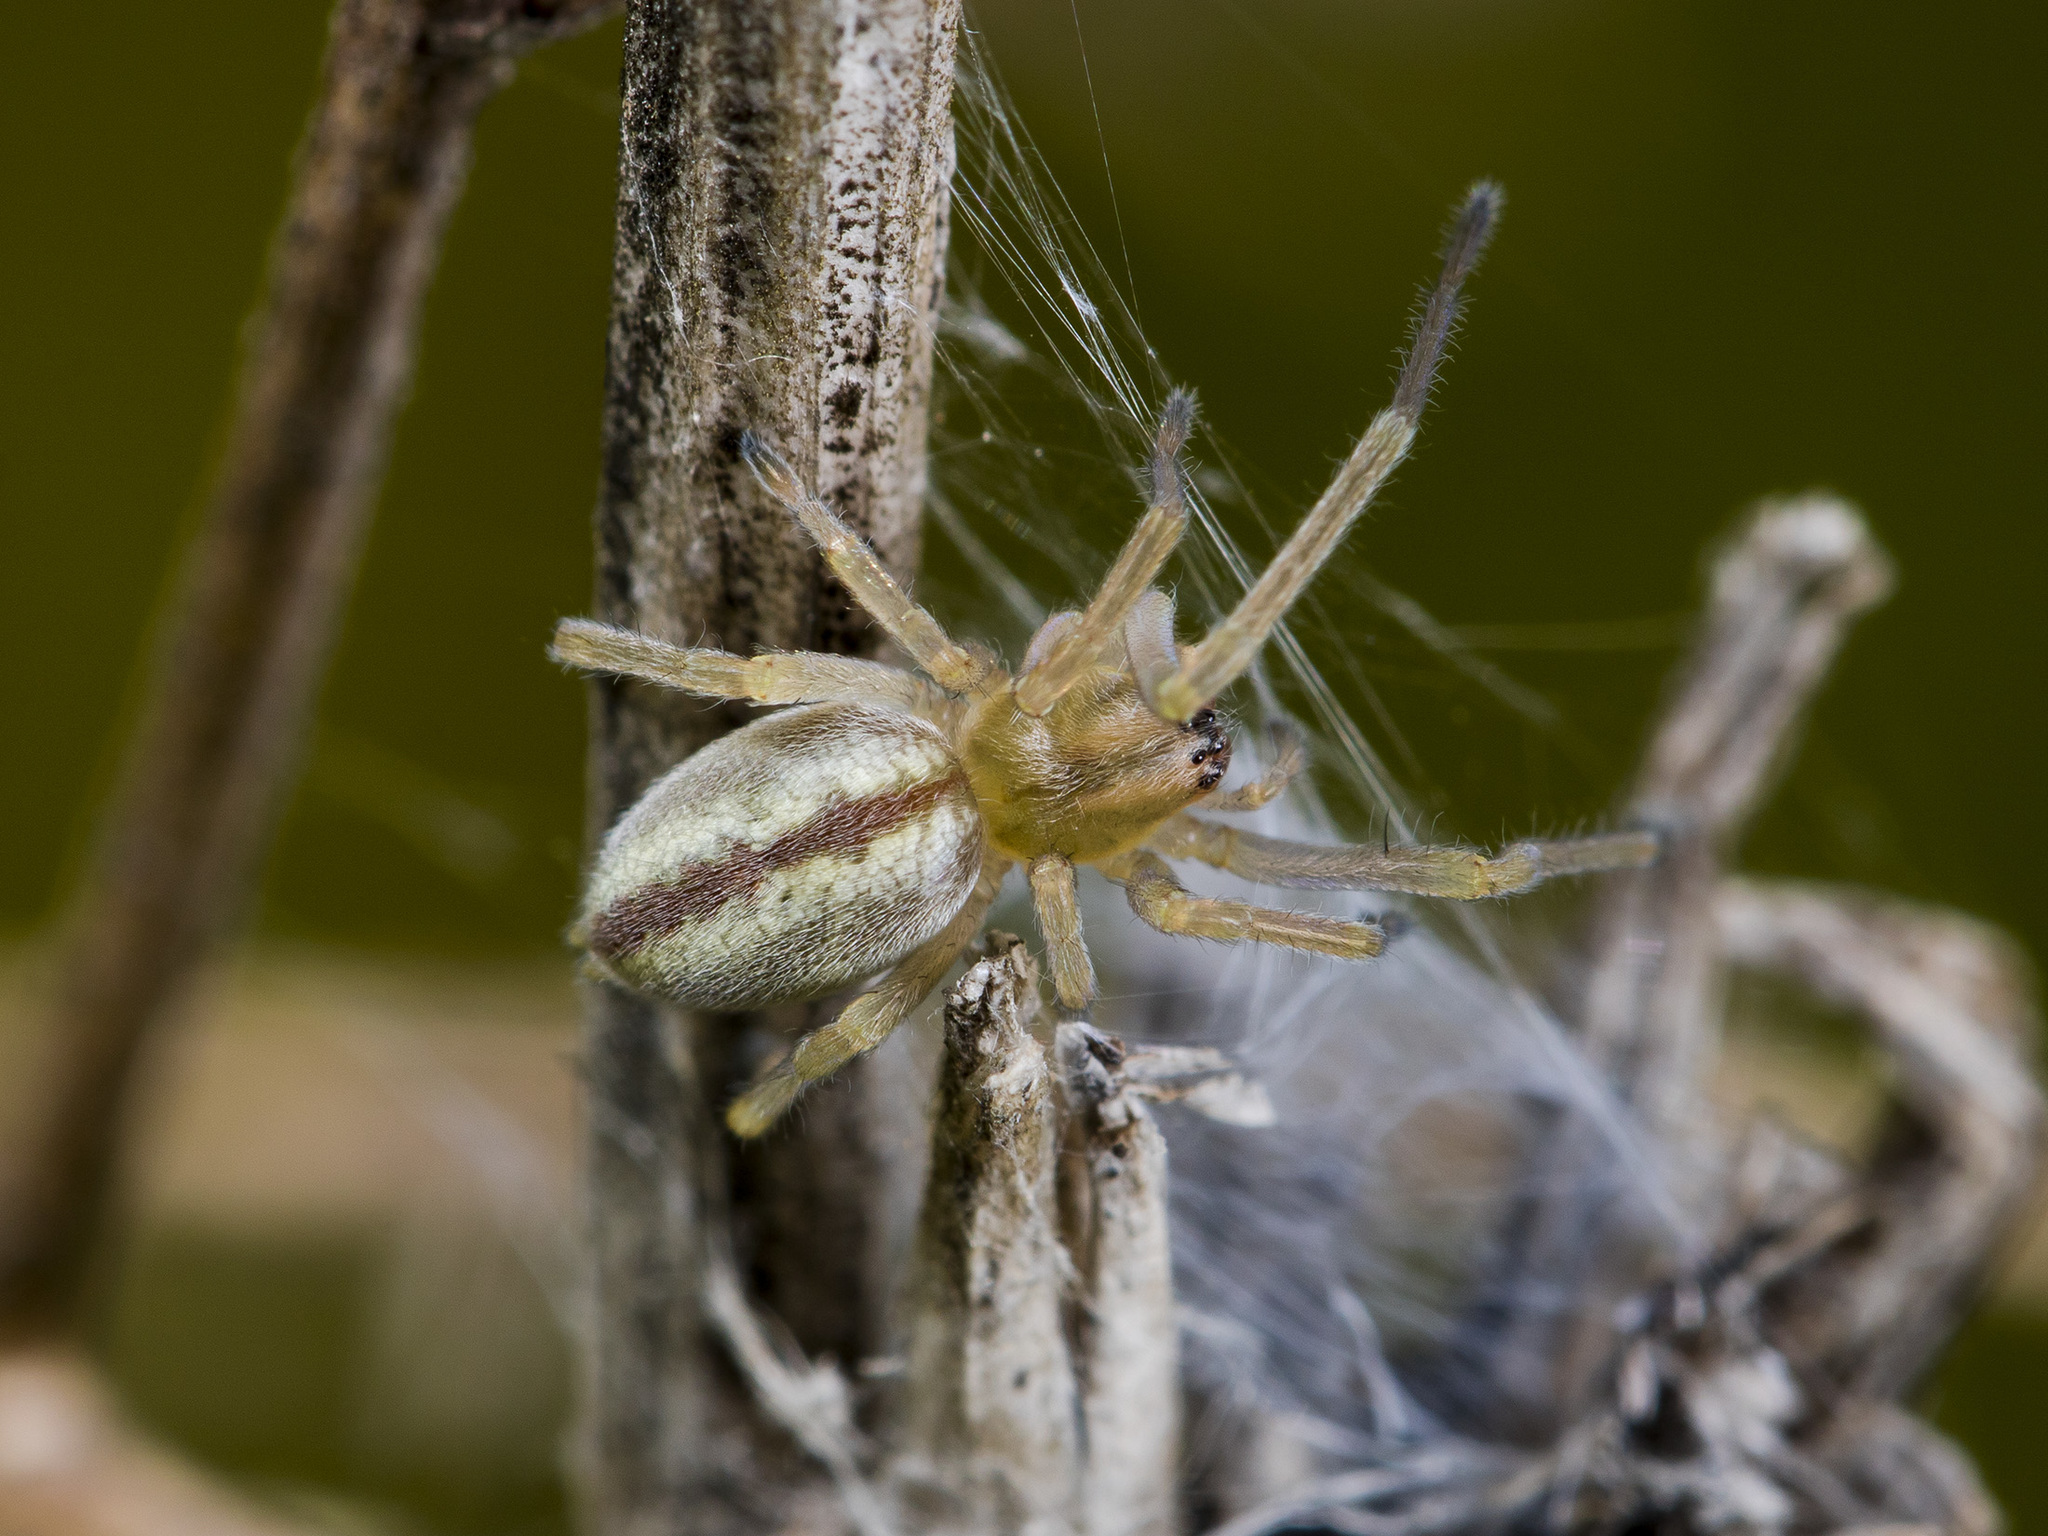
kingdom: Animalia
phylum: Arthropoda
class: Arachnida
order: Araneae
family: Cheiracanthiidae
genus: Cheiracanthium
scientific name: Cheiracanthium erraticum
